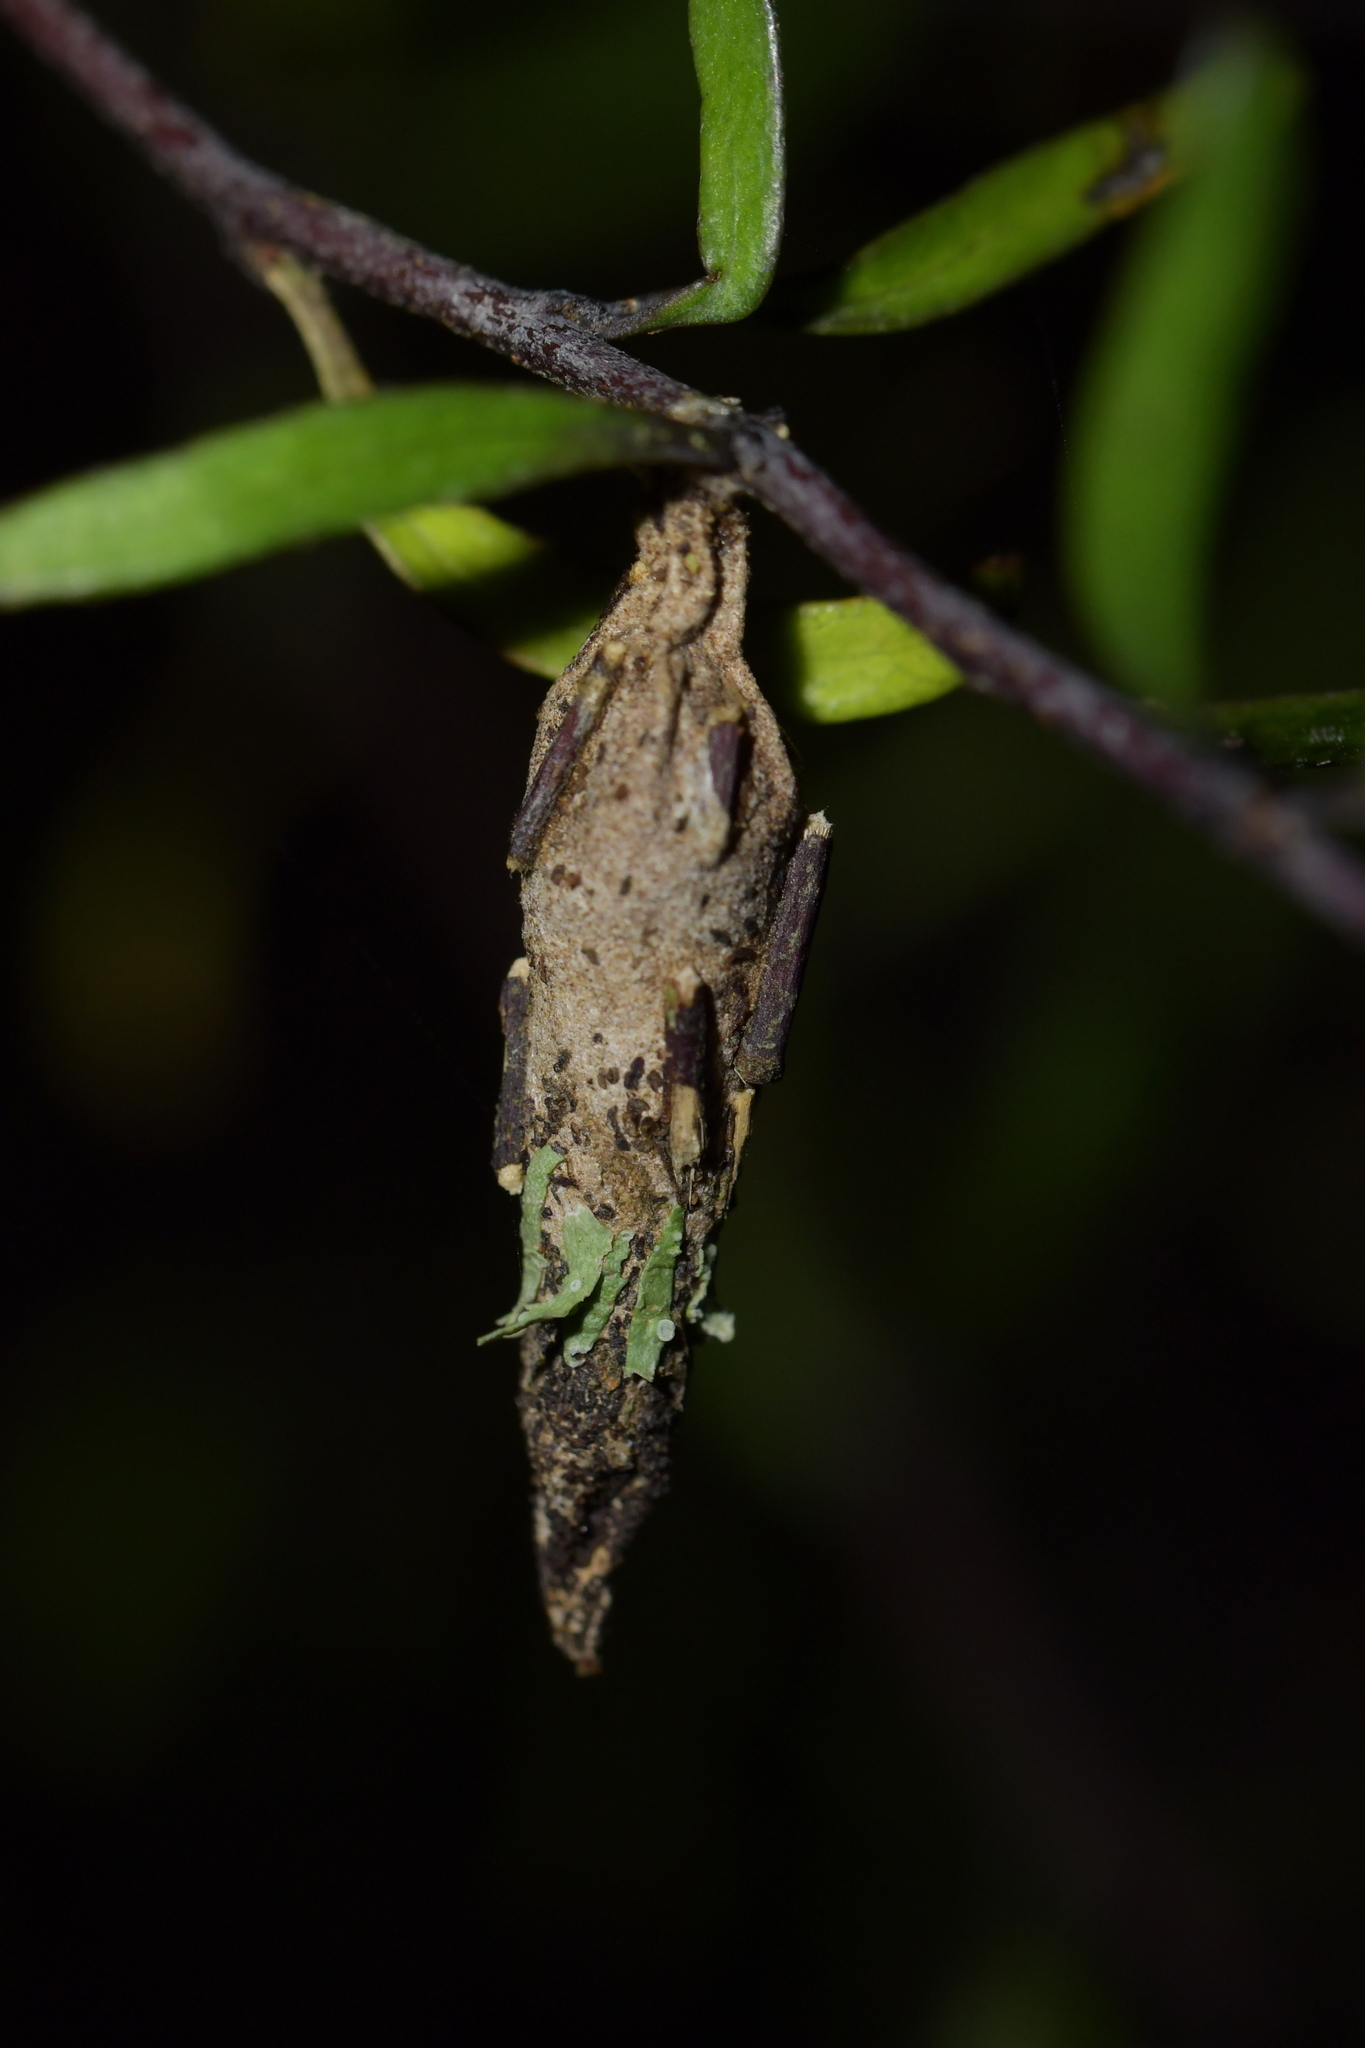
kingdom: Animalia
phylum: Arthropoda
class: Insecta
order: Lepidoptera
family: Psychidae
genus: Liothula
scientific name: Liothula omnivora
